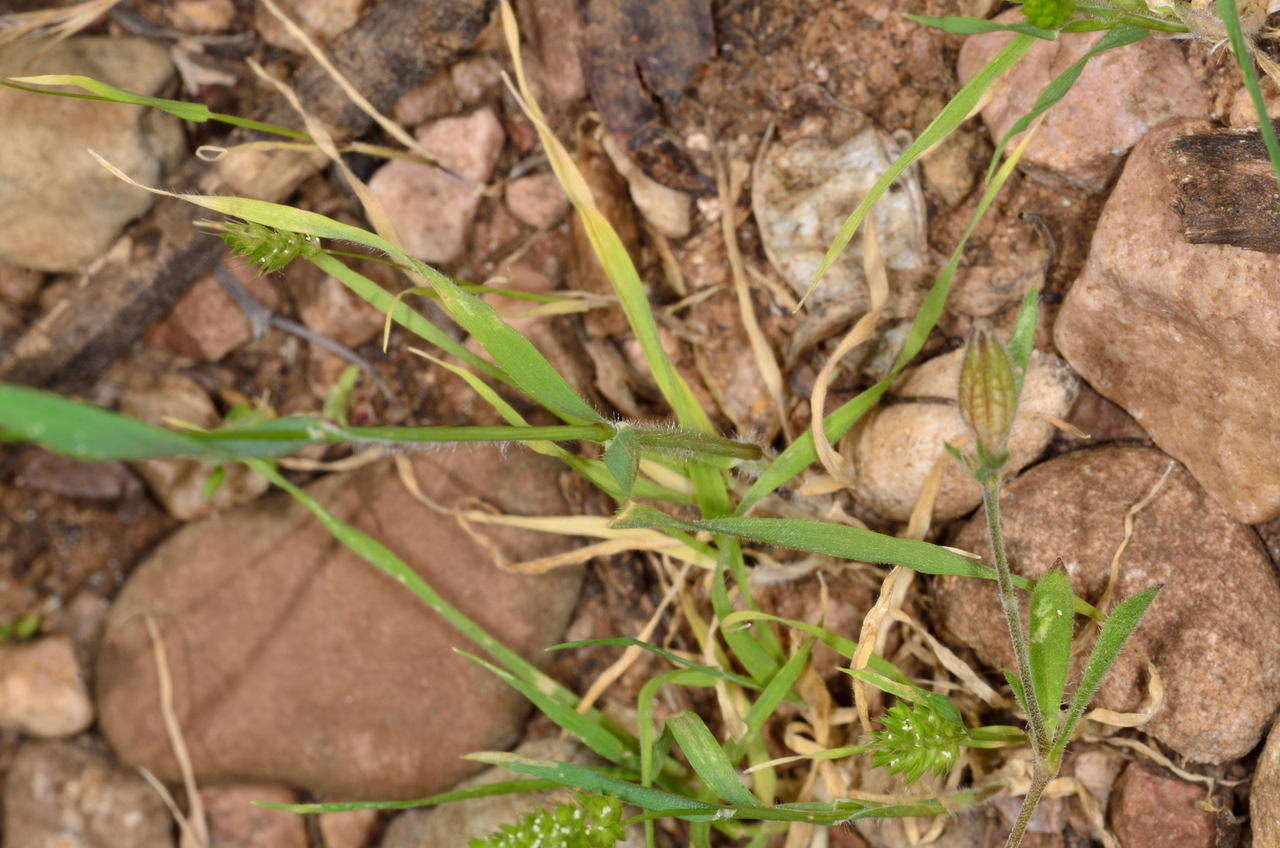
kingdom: Plantae
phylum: Tracheophyta
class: Liliopsida
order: Poales
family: Poaceae
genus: Rostraria
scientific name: Rostraria cristata
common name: Mediterranean hair-grass
